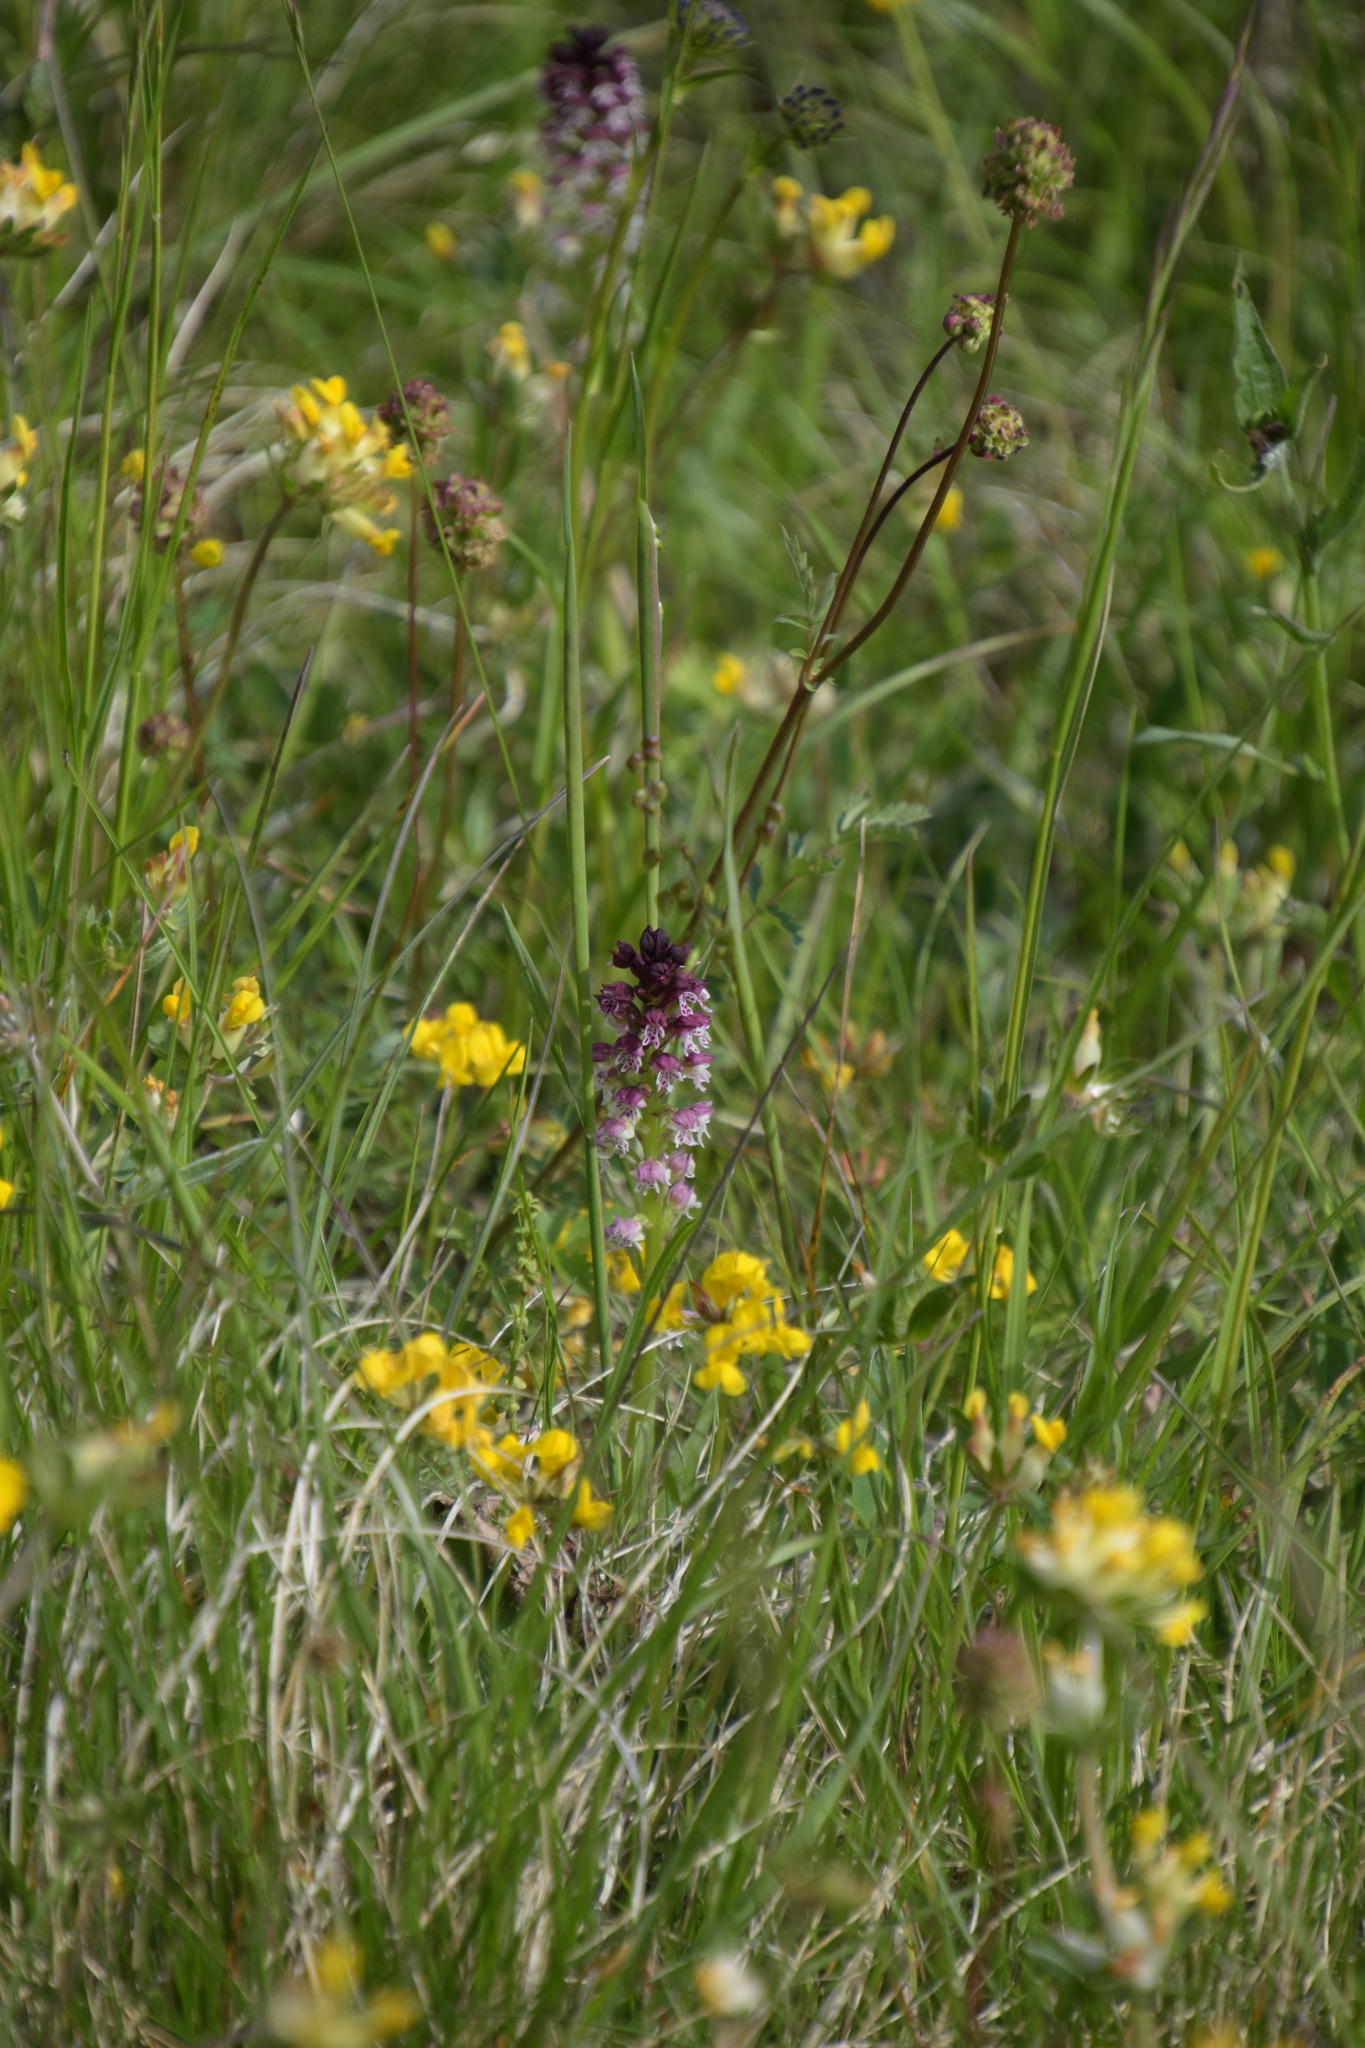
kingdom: Plantae
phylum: Tracheophyta
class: Liliopsida
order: Asparagales
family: Orchidaceae
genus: Neotinea
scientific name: Neotinea ustulata
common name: Burnt orchid
